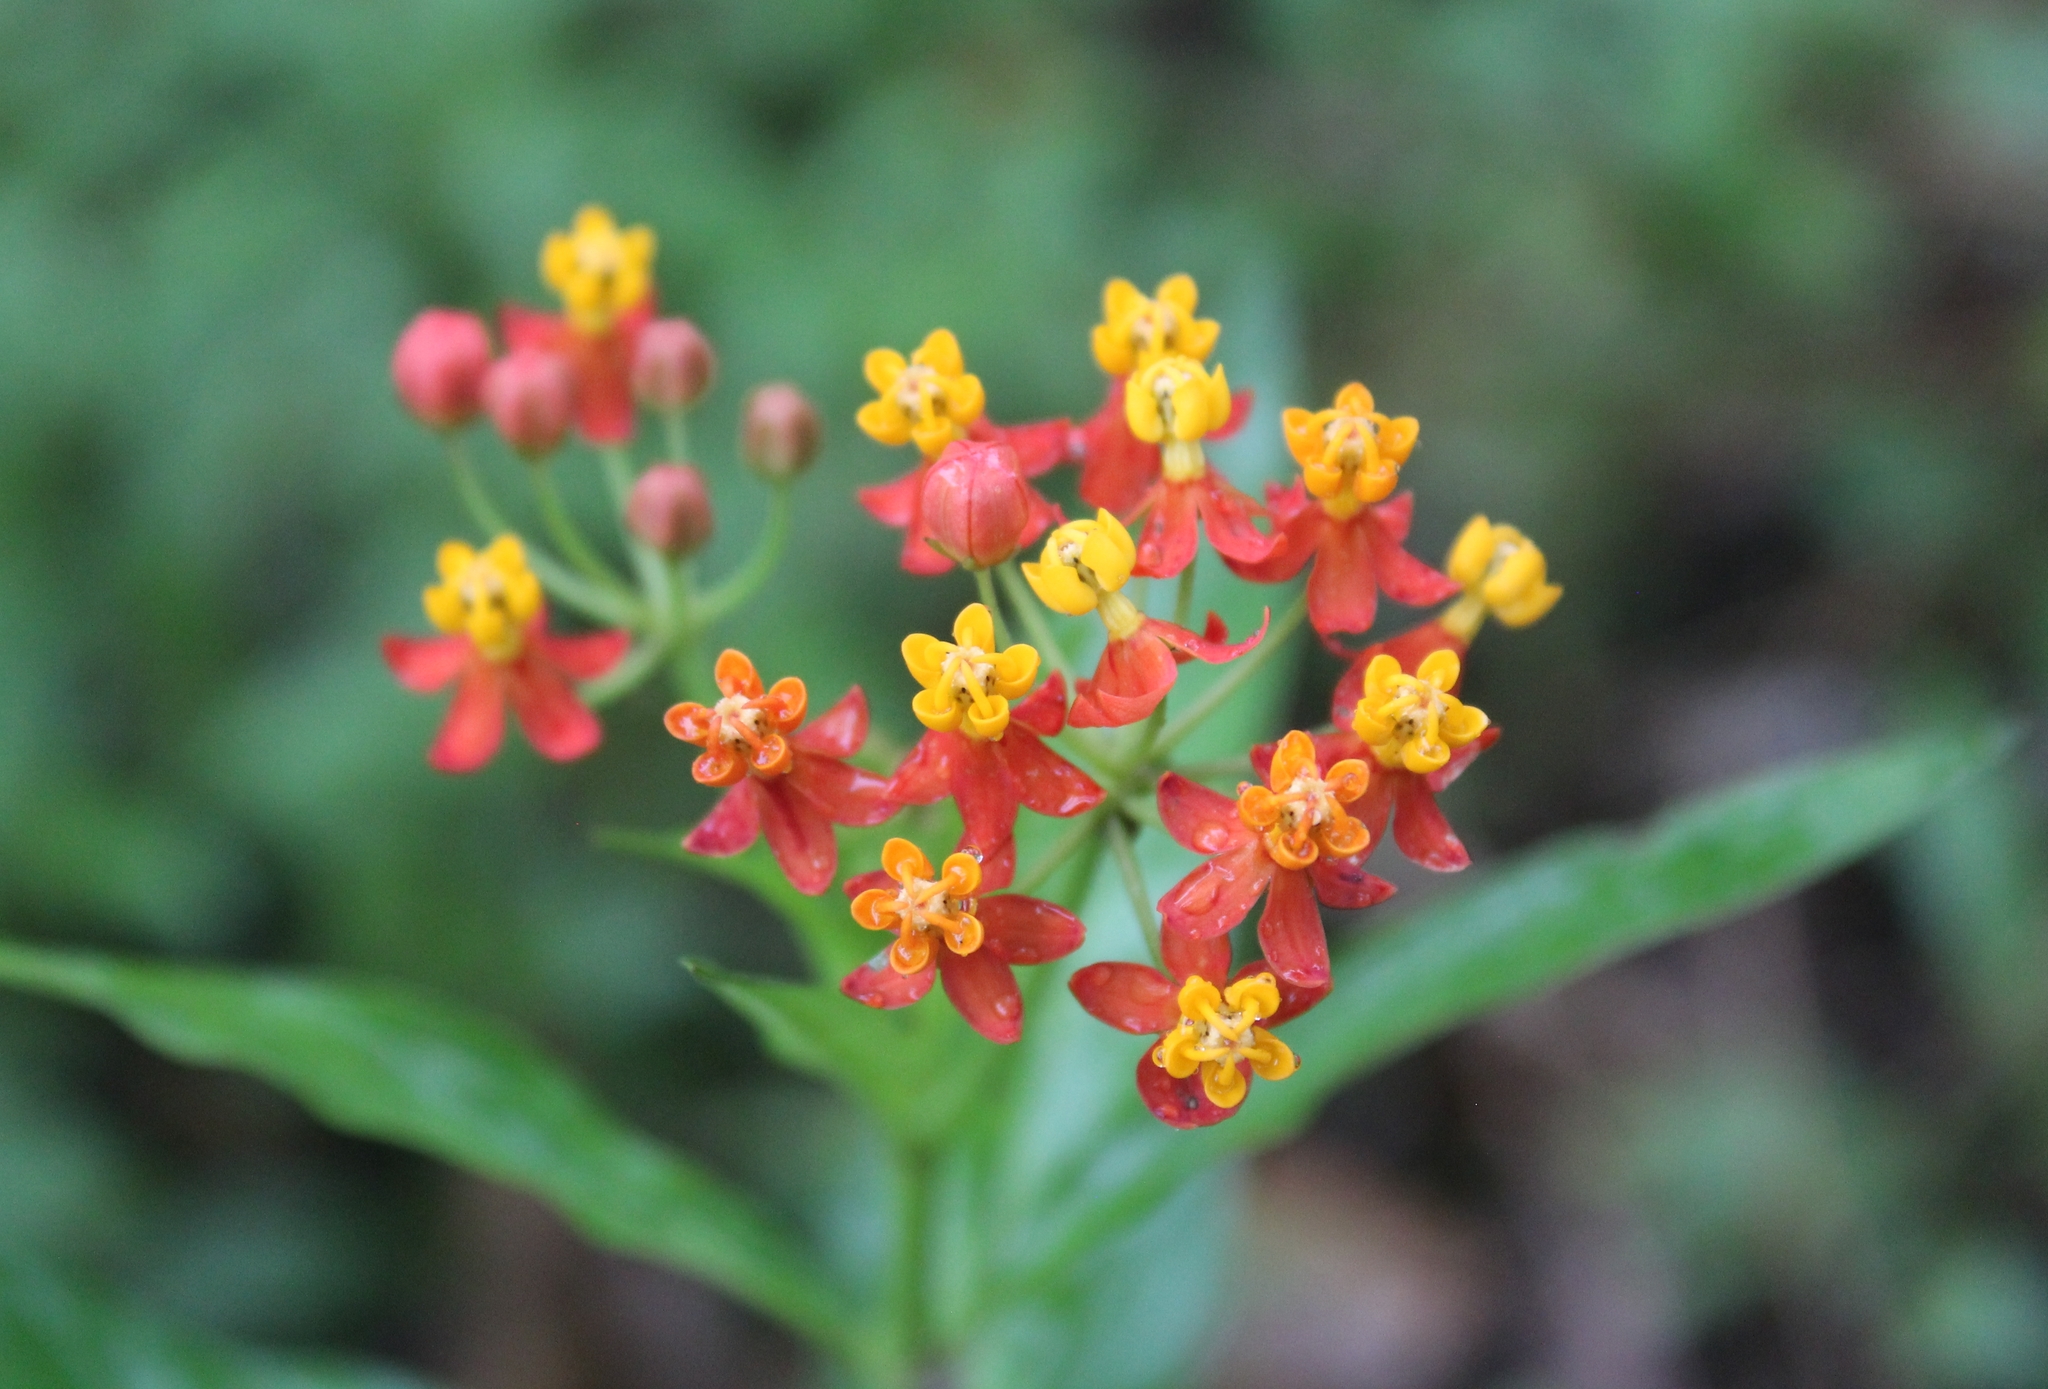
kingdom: Plantae
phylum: Tracheophyta
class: Magnoliopsida
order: Gentianales
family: Apocynaceae
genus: Asclepias
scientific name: Asclepias curassavica
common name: Bloodflower
